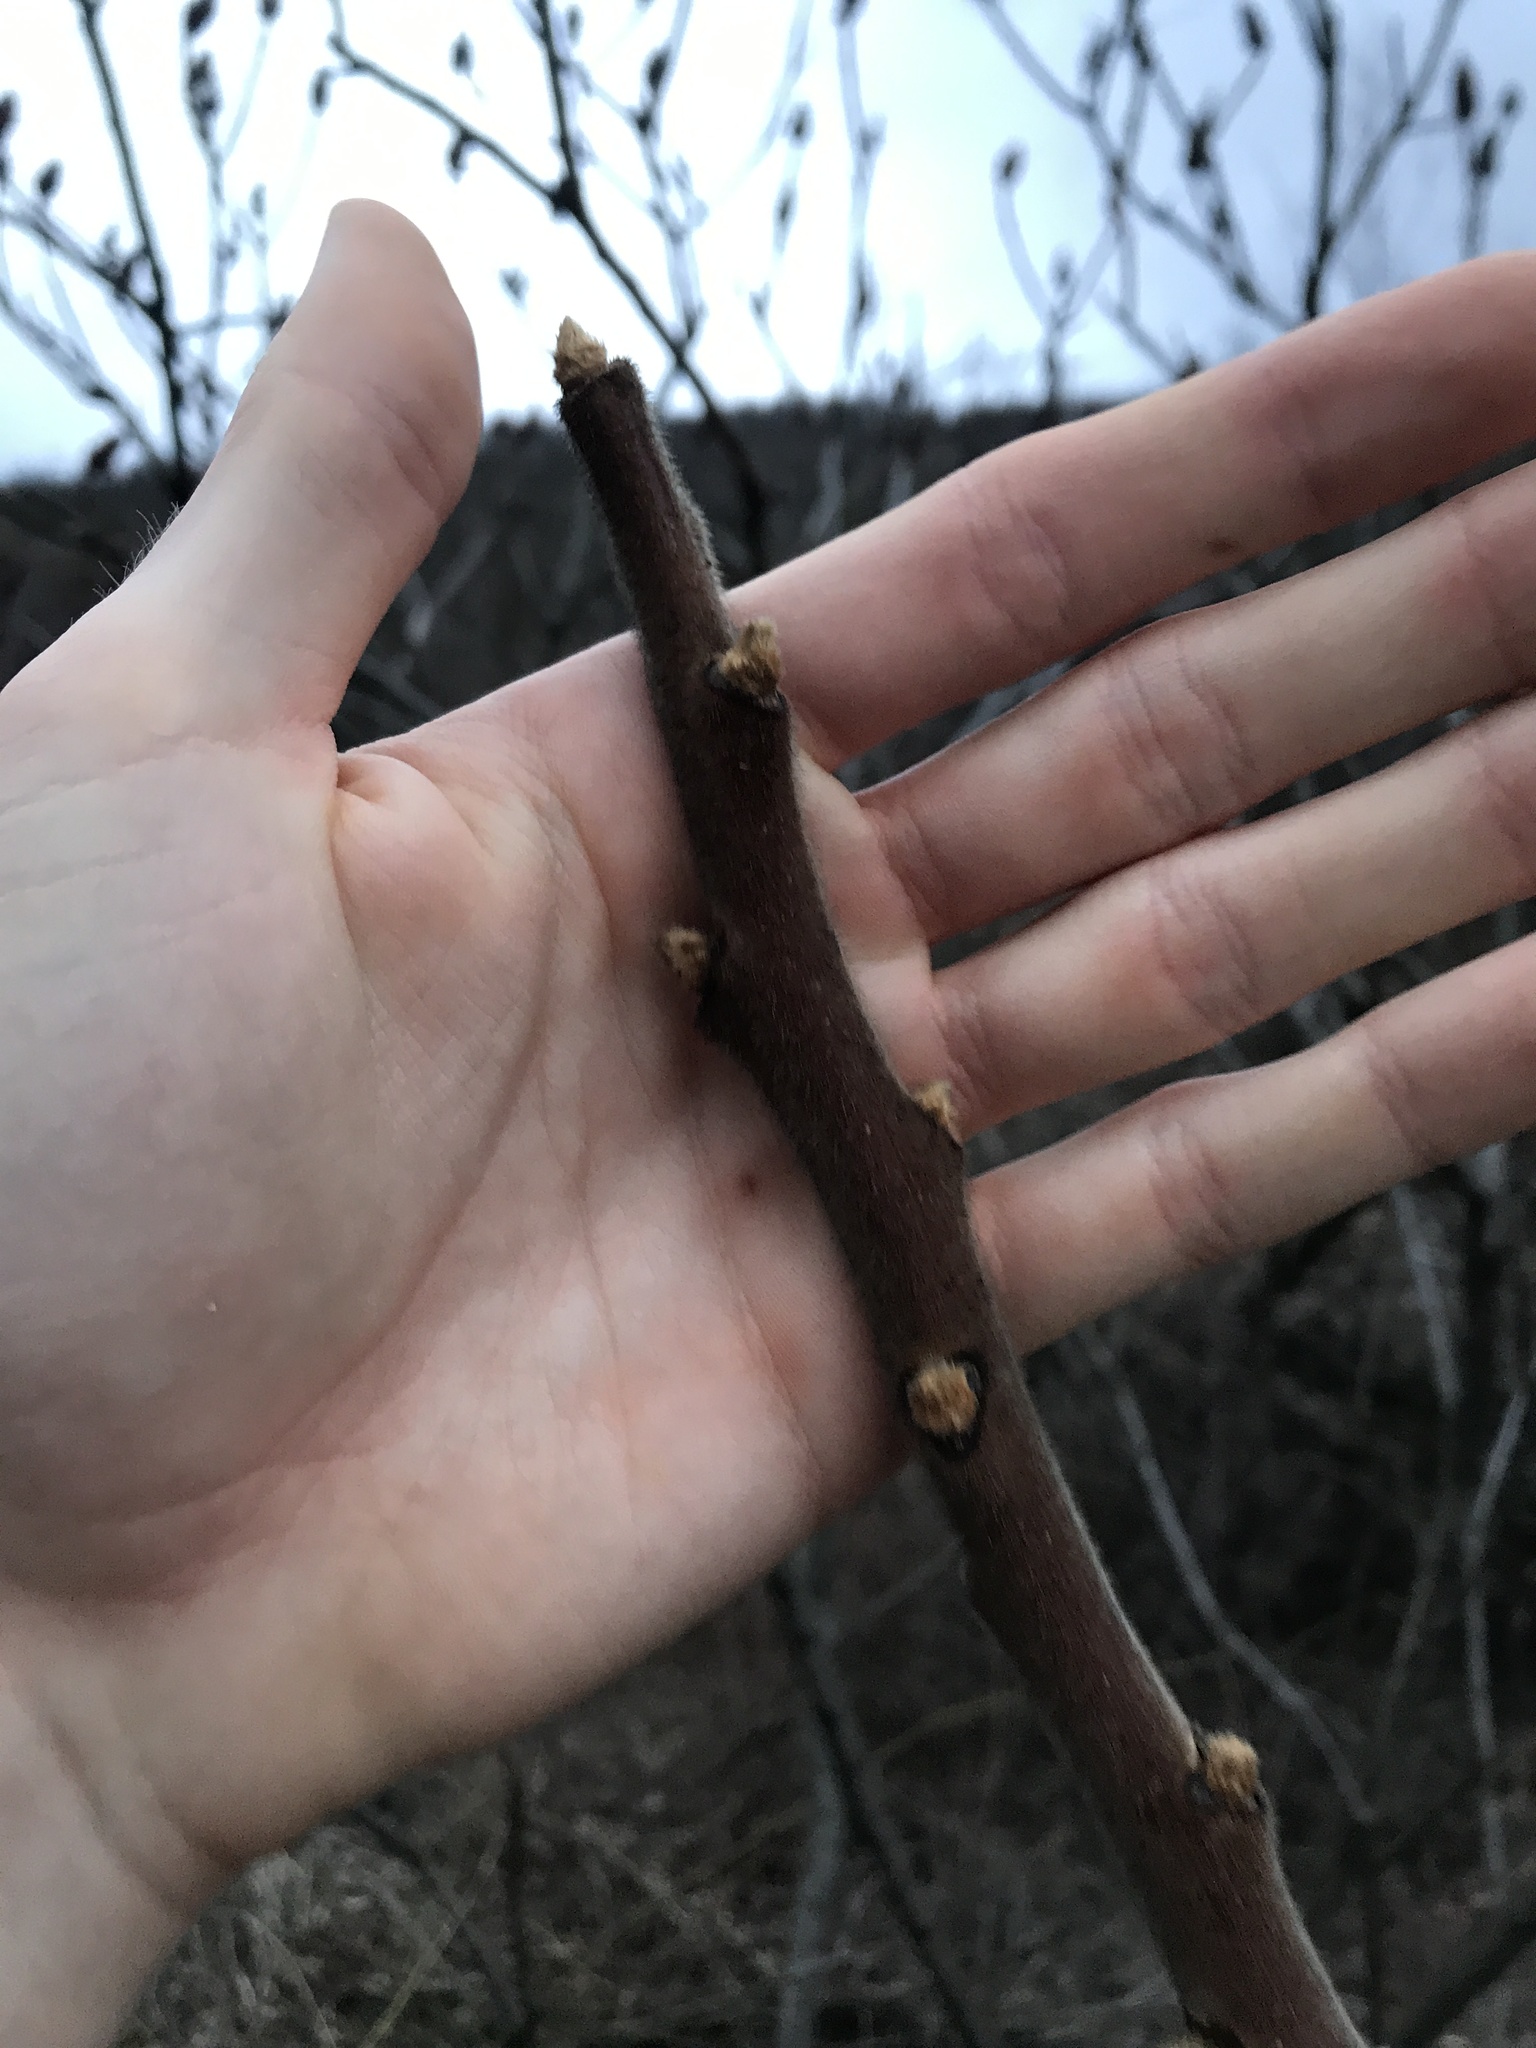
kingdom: Plantae
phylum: Tracheophyta
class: Magnoliopsida
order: Sapindales
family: Anacardiaceae
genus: Rhus
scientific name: Rhus typhina
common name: Staghorn sumac
